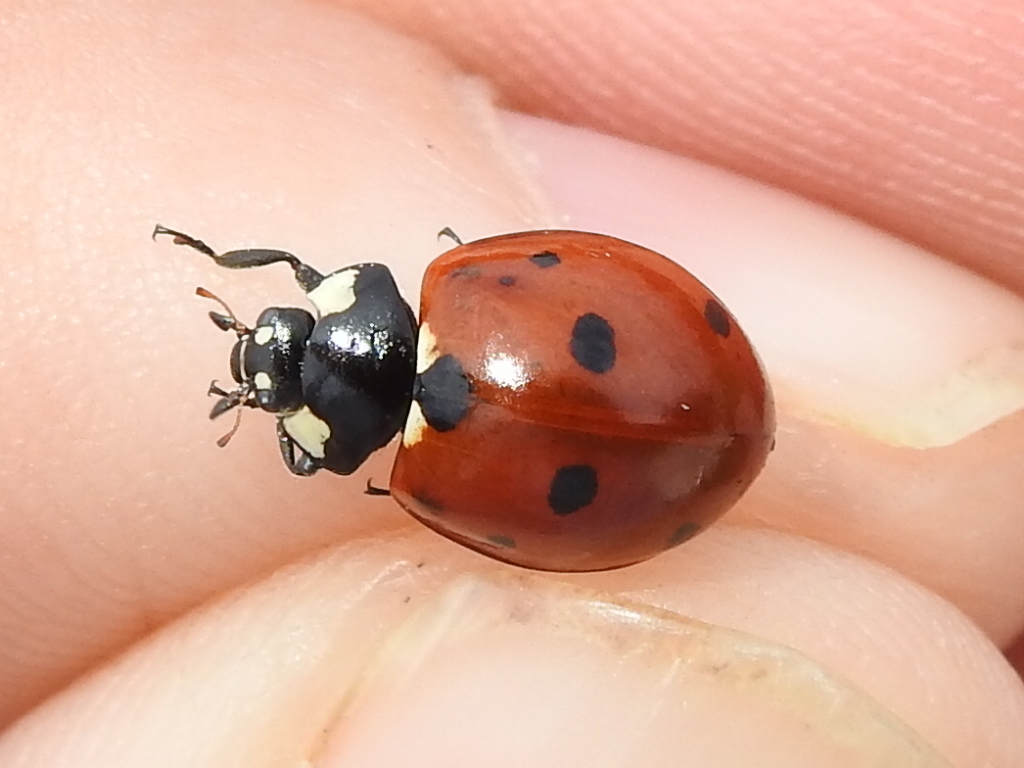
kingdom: Animalia
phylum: Arthropoda
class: Insecta
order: Coleoptera
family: Coccinellidae
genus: Coccinella
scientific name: Coccinella septempunctata
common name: Sevenspotted lady beetle
